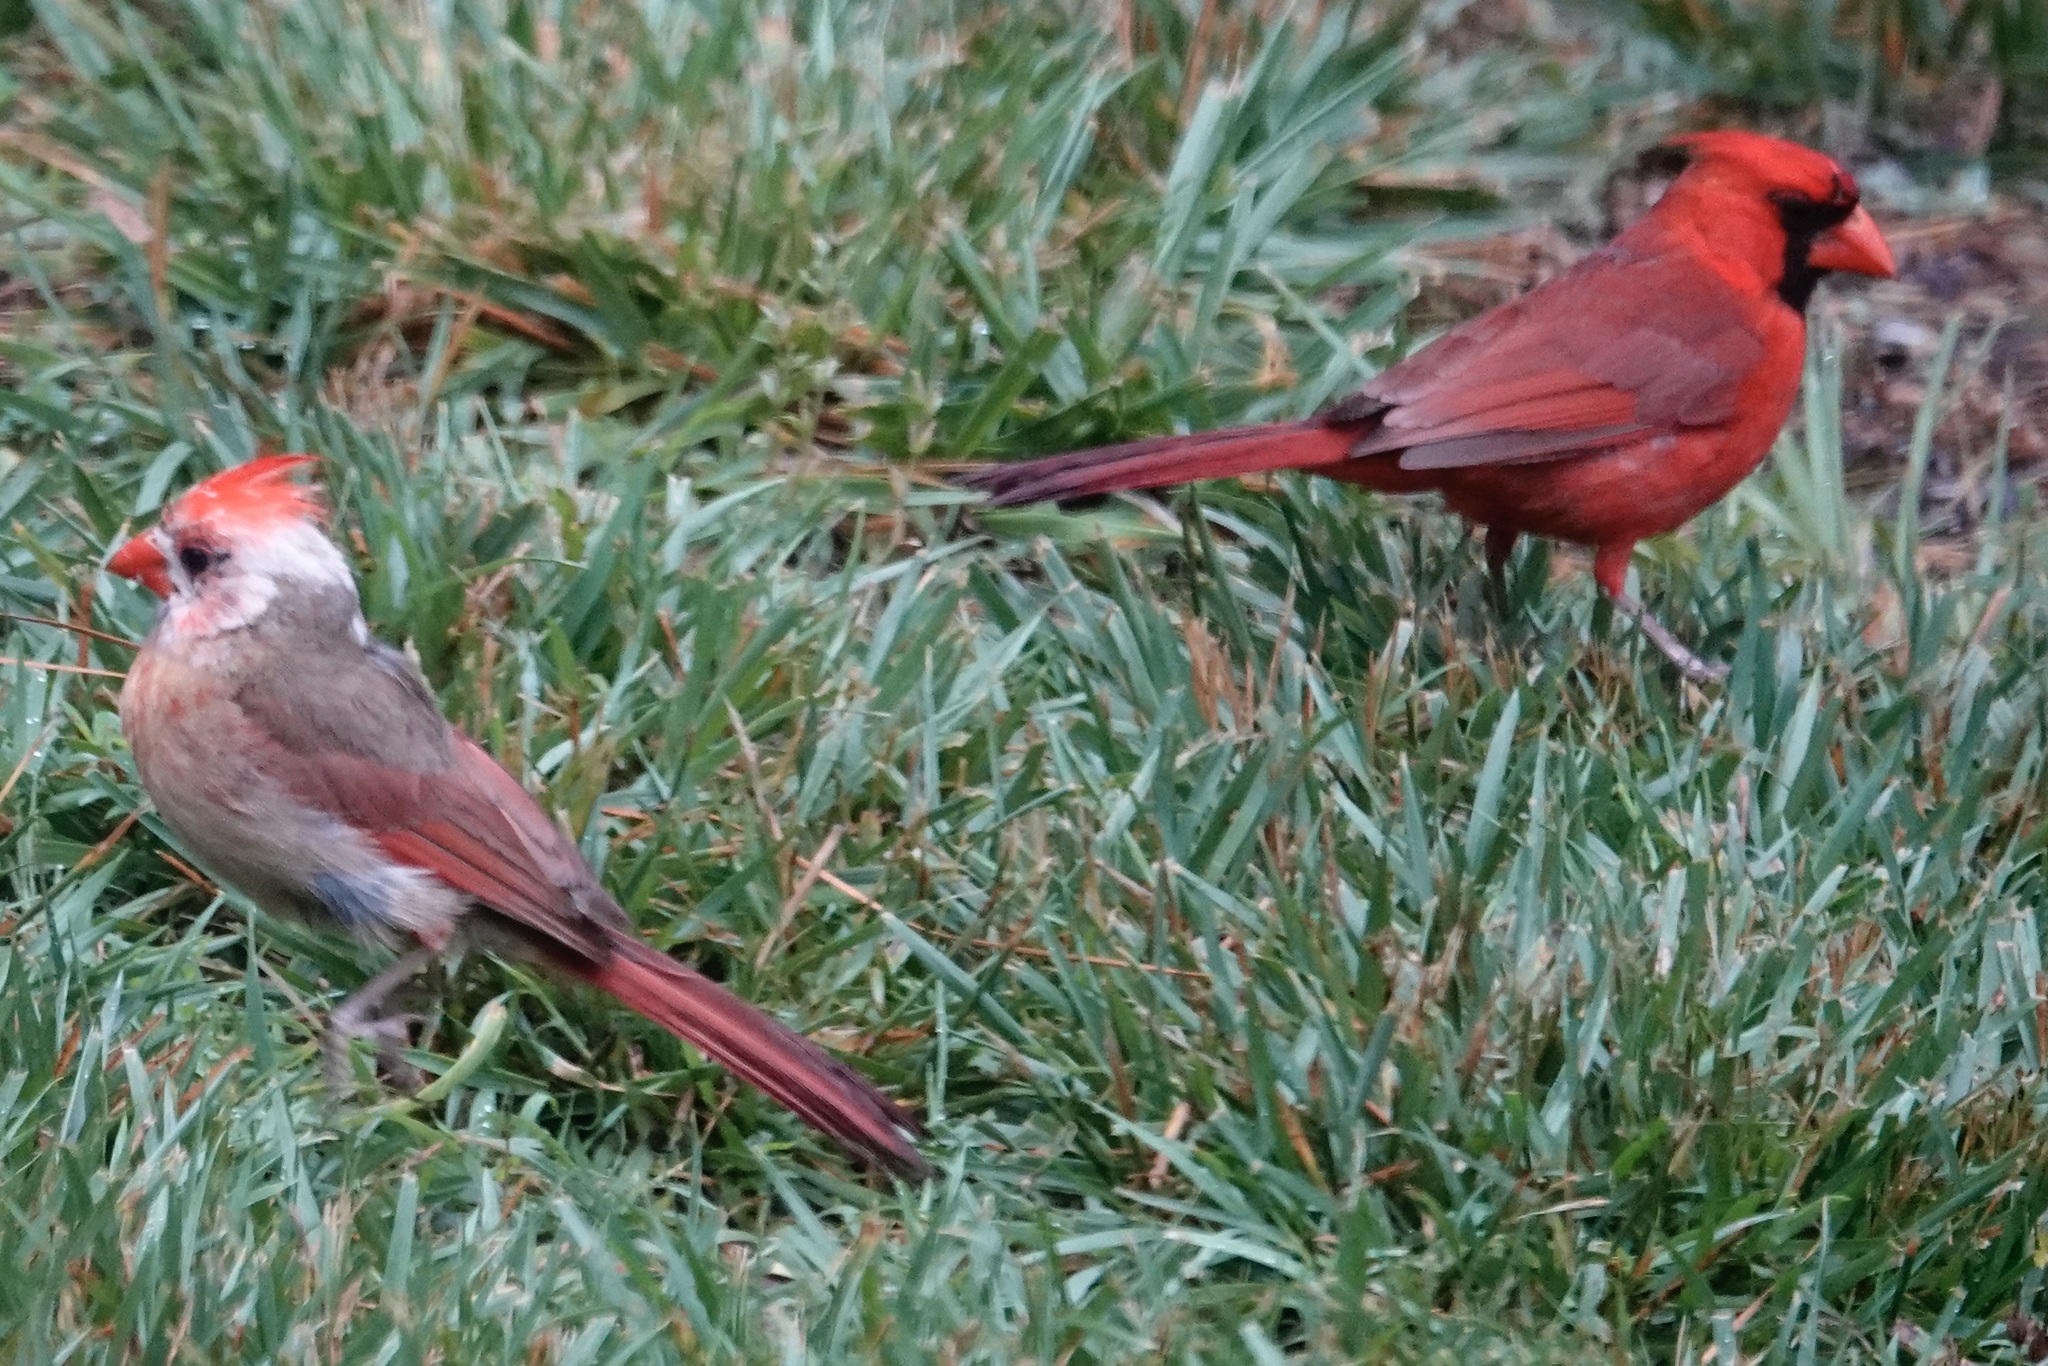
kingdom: Animalia
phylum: Chordata
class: Aves
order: Passeriformes
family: Cardinalidae
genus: Cardinalis
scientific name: Cardinalis cardinalis
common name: Northern cardinal
